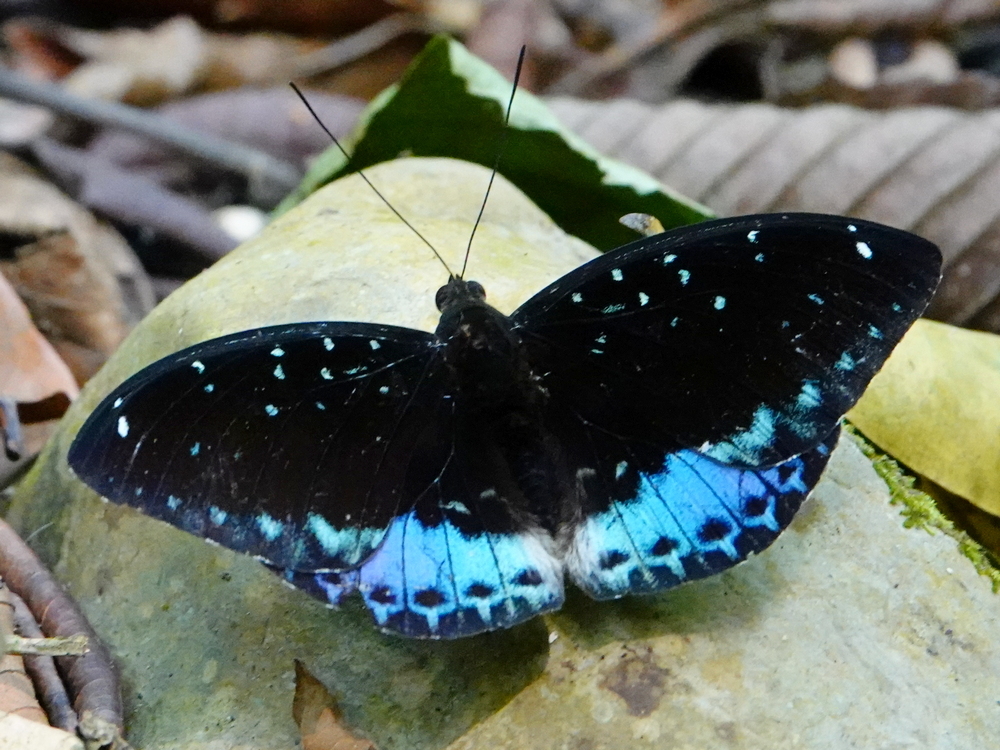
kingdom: Animalia
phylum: Arthropoda
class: Insecta
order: Lepidoptera
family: Nymphalidae
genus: Lexias
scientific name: Lexias
